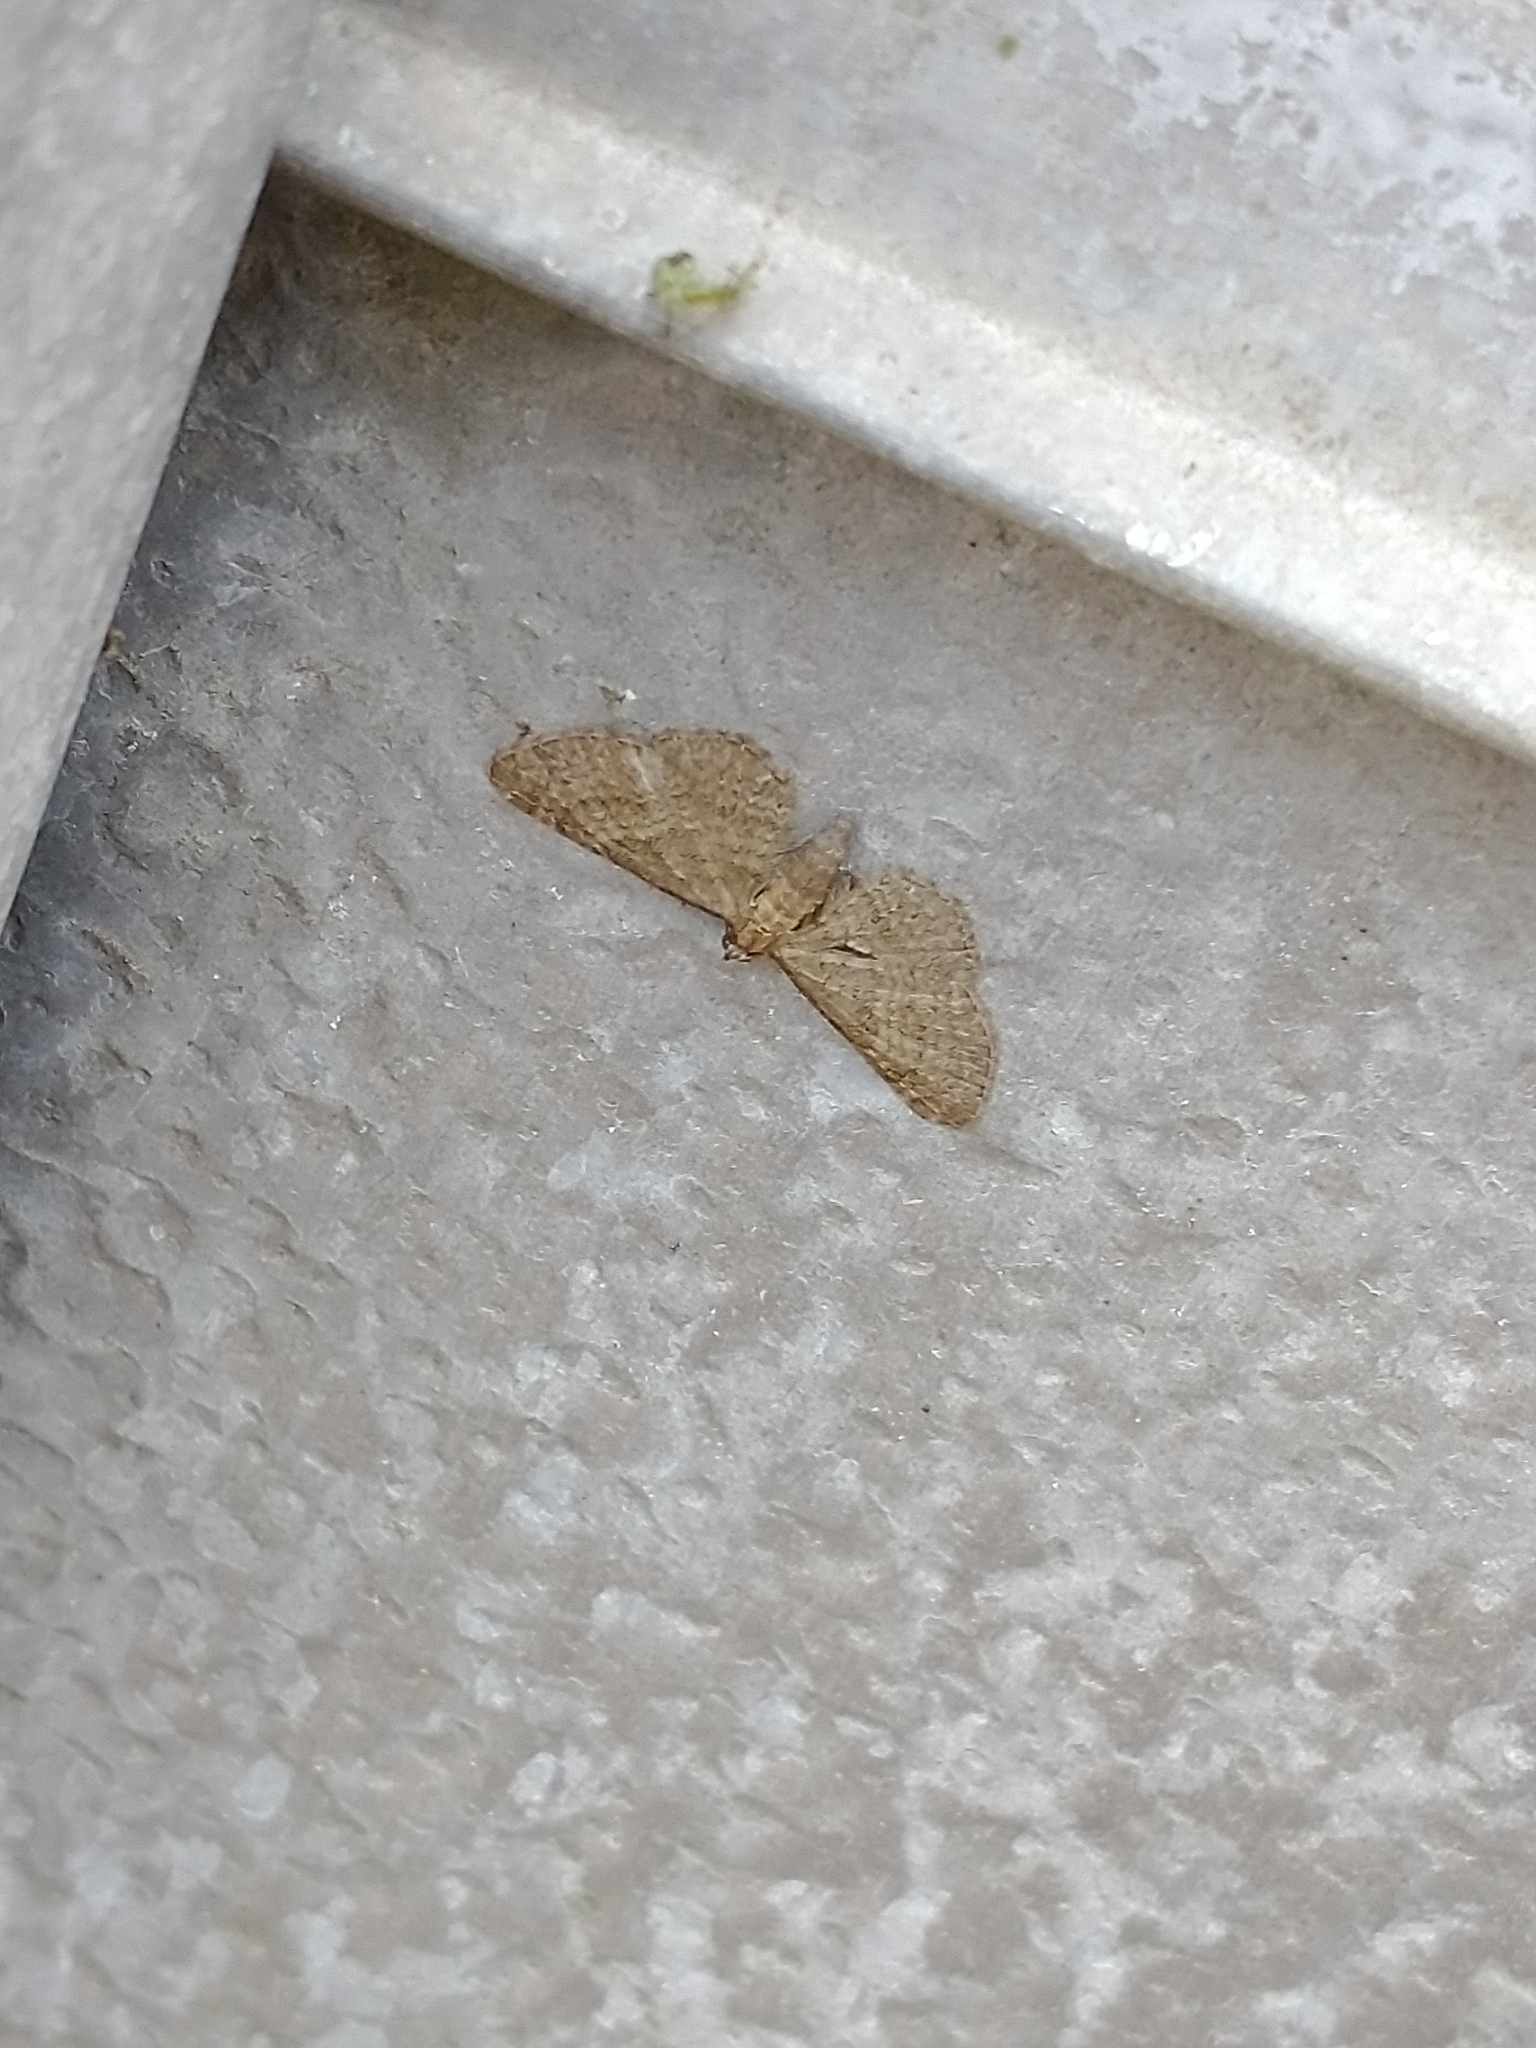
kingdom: Animalia
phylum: Arthropoda
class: Insecta
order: Lepidoptera
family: Geometridae
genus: Eupithecia
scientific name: Eupithecia haworthiata
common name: Haworth's pug
